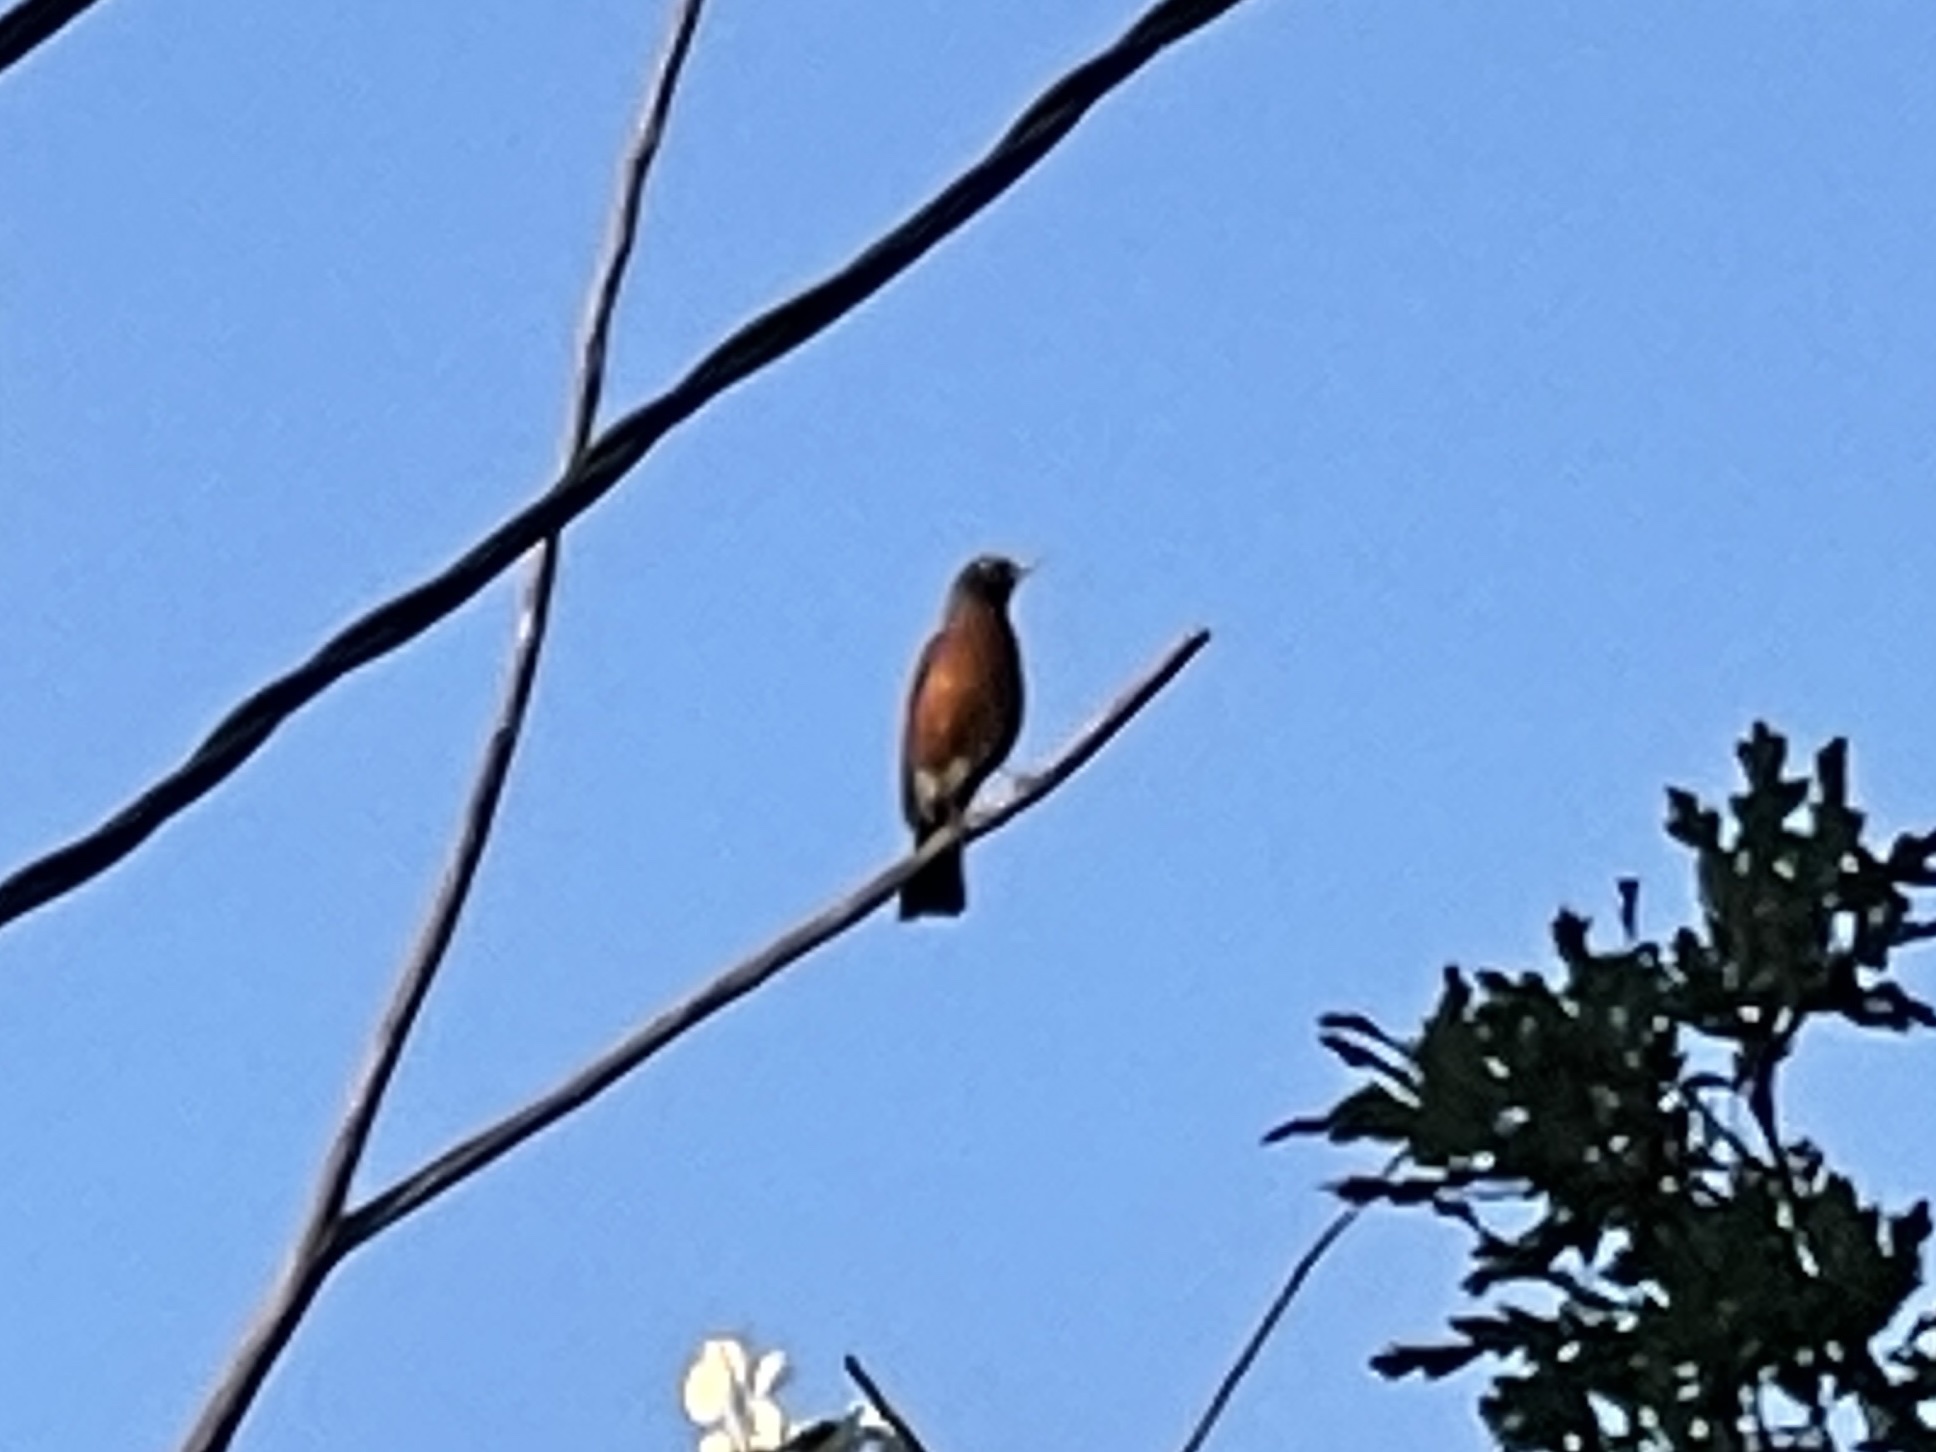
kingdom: Animalia
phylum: Chordata
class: Aves
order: Passeriformes
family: Turdidae
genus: Turdus
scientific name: Turdus migratorius
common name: American robin
